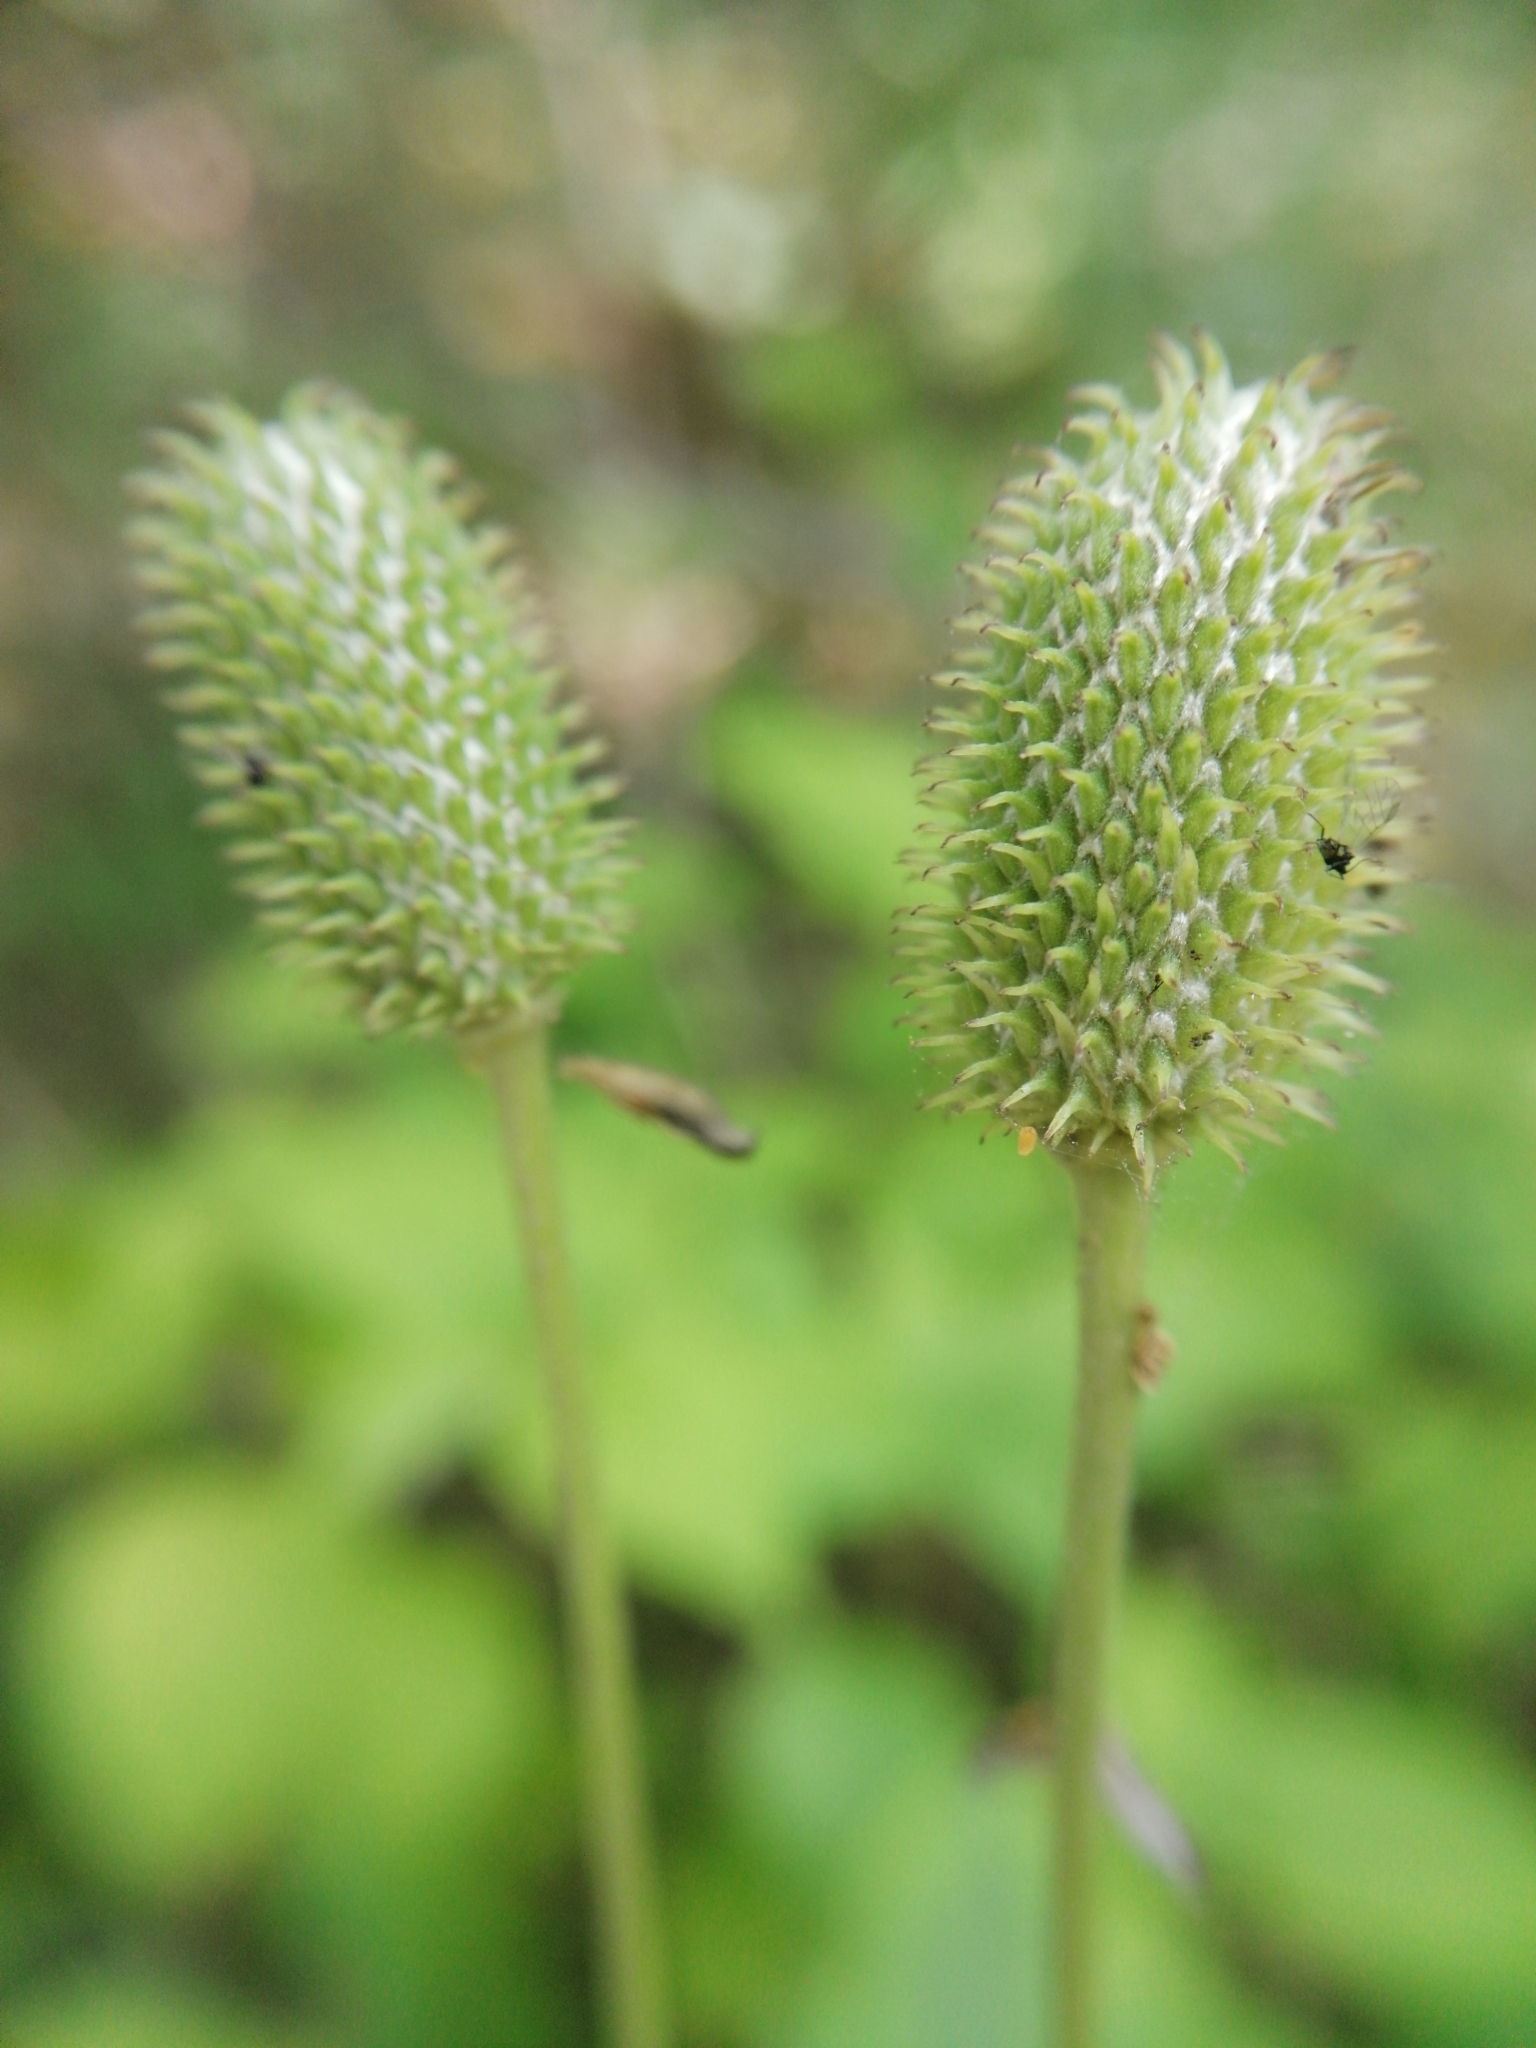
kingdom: Plantae
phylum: Tracheophyta
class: Magnoliopsida
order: Ranunculales
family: Ranunculaceae
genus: Anemone
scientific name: Anemone virginiana
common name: Tall anemone
